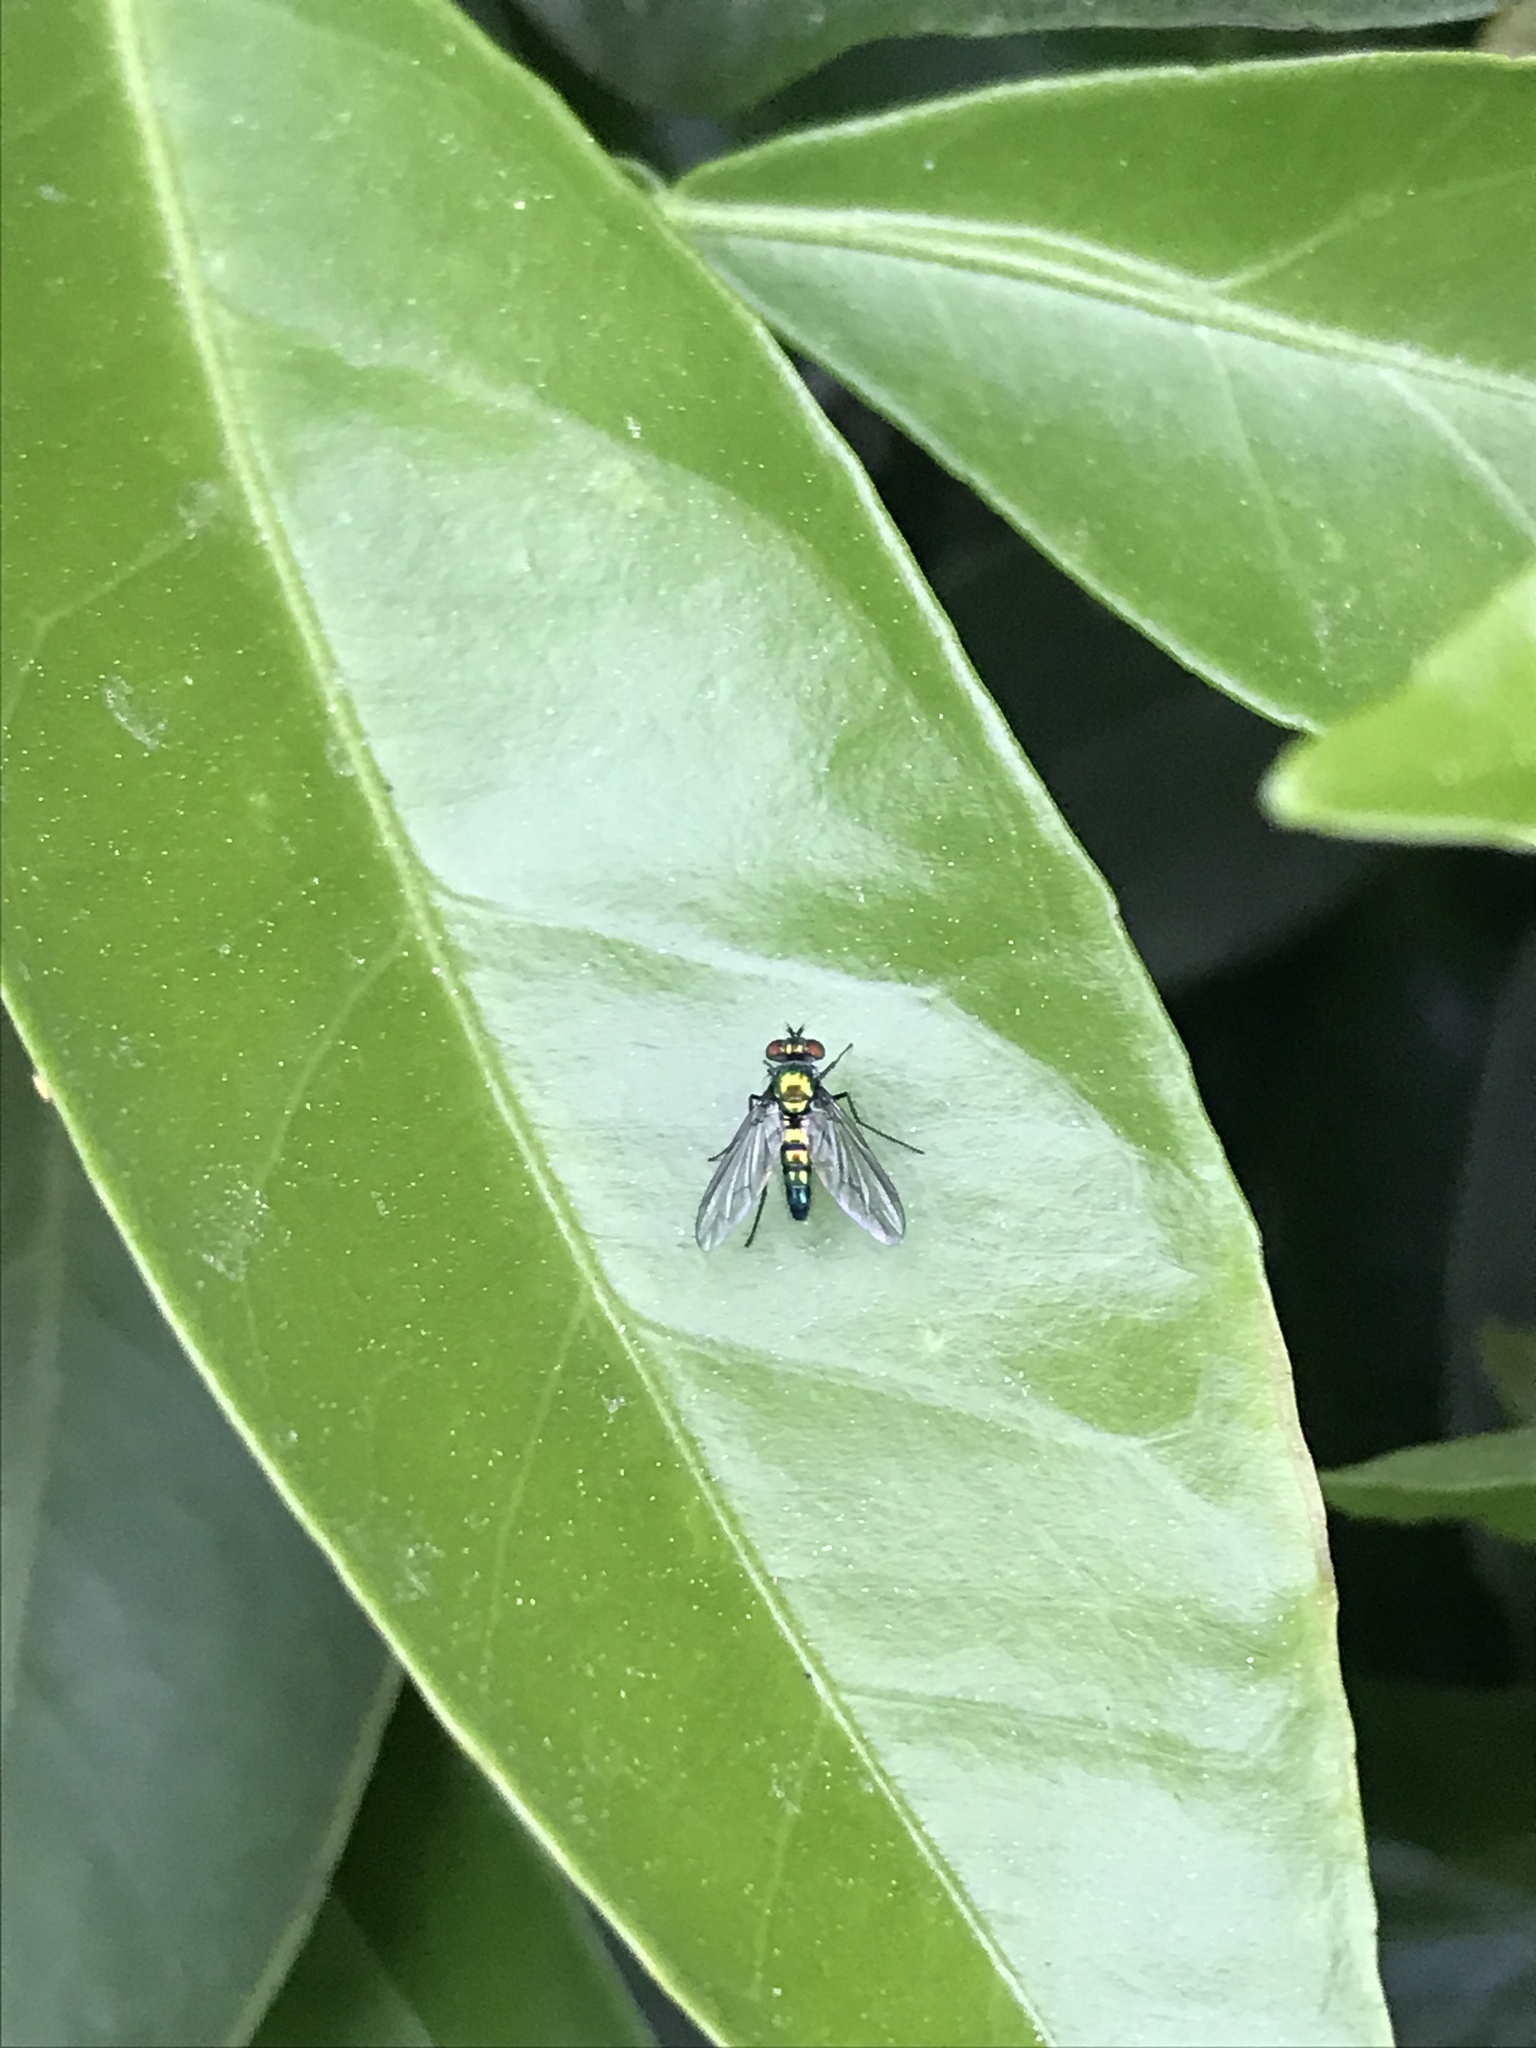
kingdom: Animalia
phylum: Arthropoda
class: Insecta
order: Diptera
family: Dolichopodidae
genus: Condylostylus
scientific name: Condylostylus longicornis
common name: Long-legged fly
